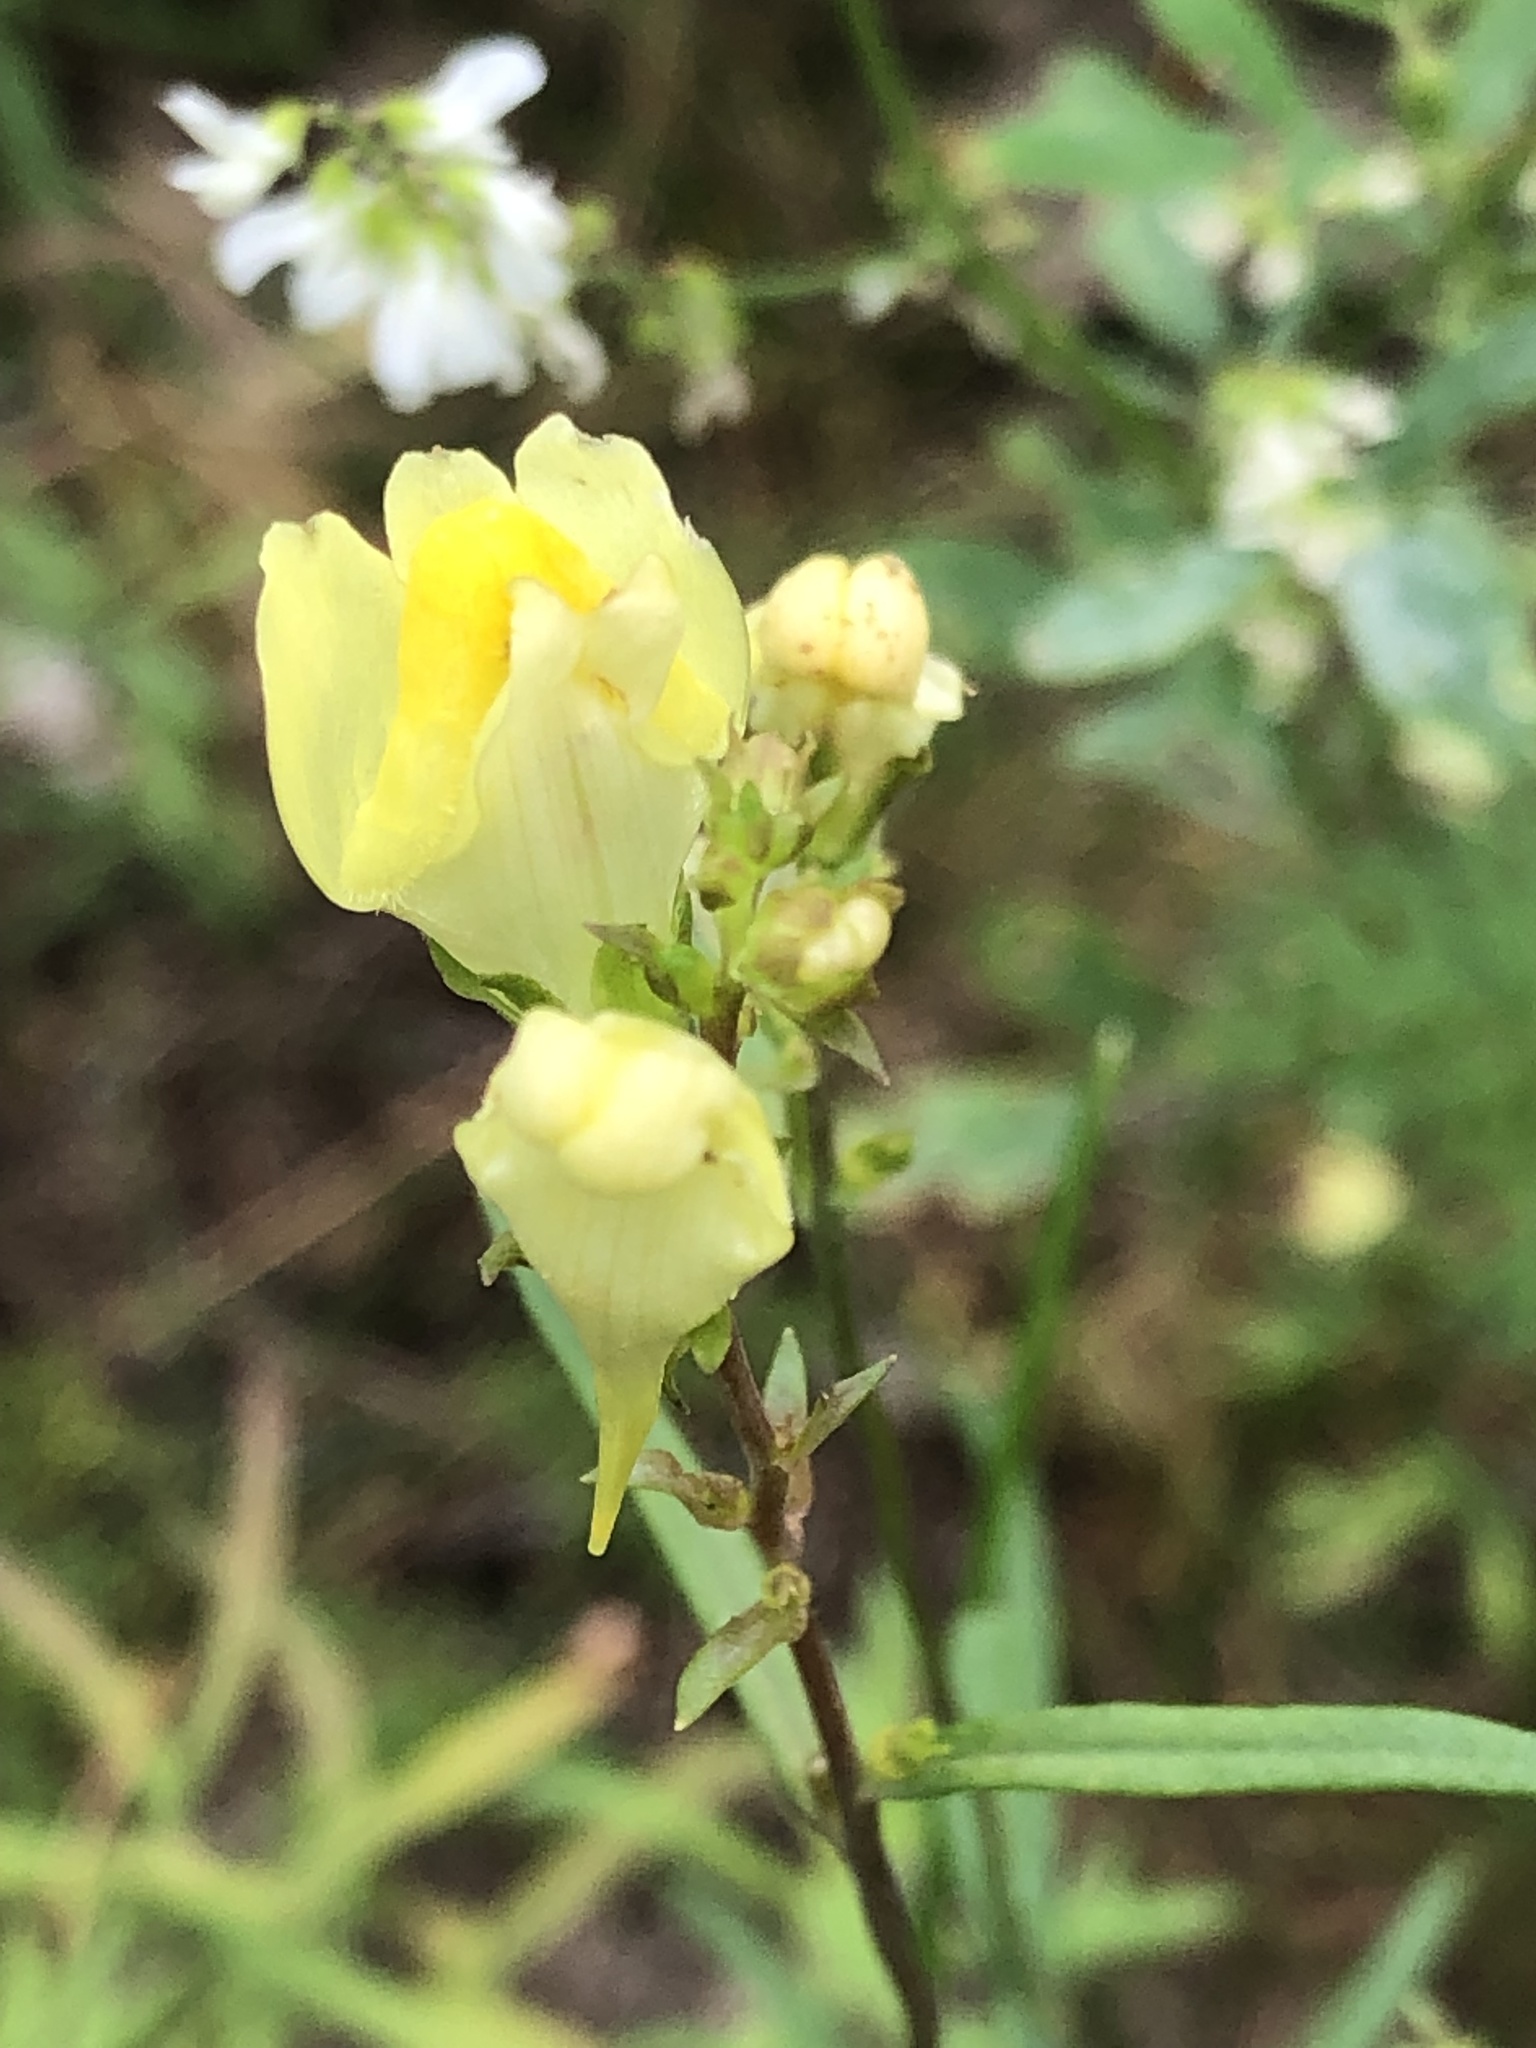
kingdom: Plantae
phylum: Tracheophyta
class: Magnoliopsida
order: Lamiales
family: Plantaginaceae
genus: Linaria
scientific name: Linaria vulgaris
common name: Butter and eggs
